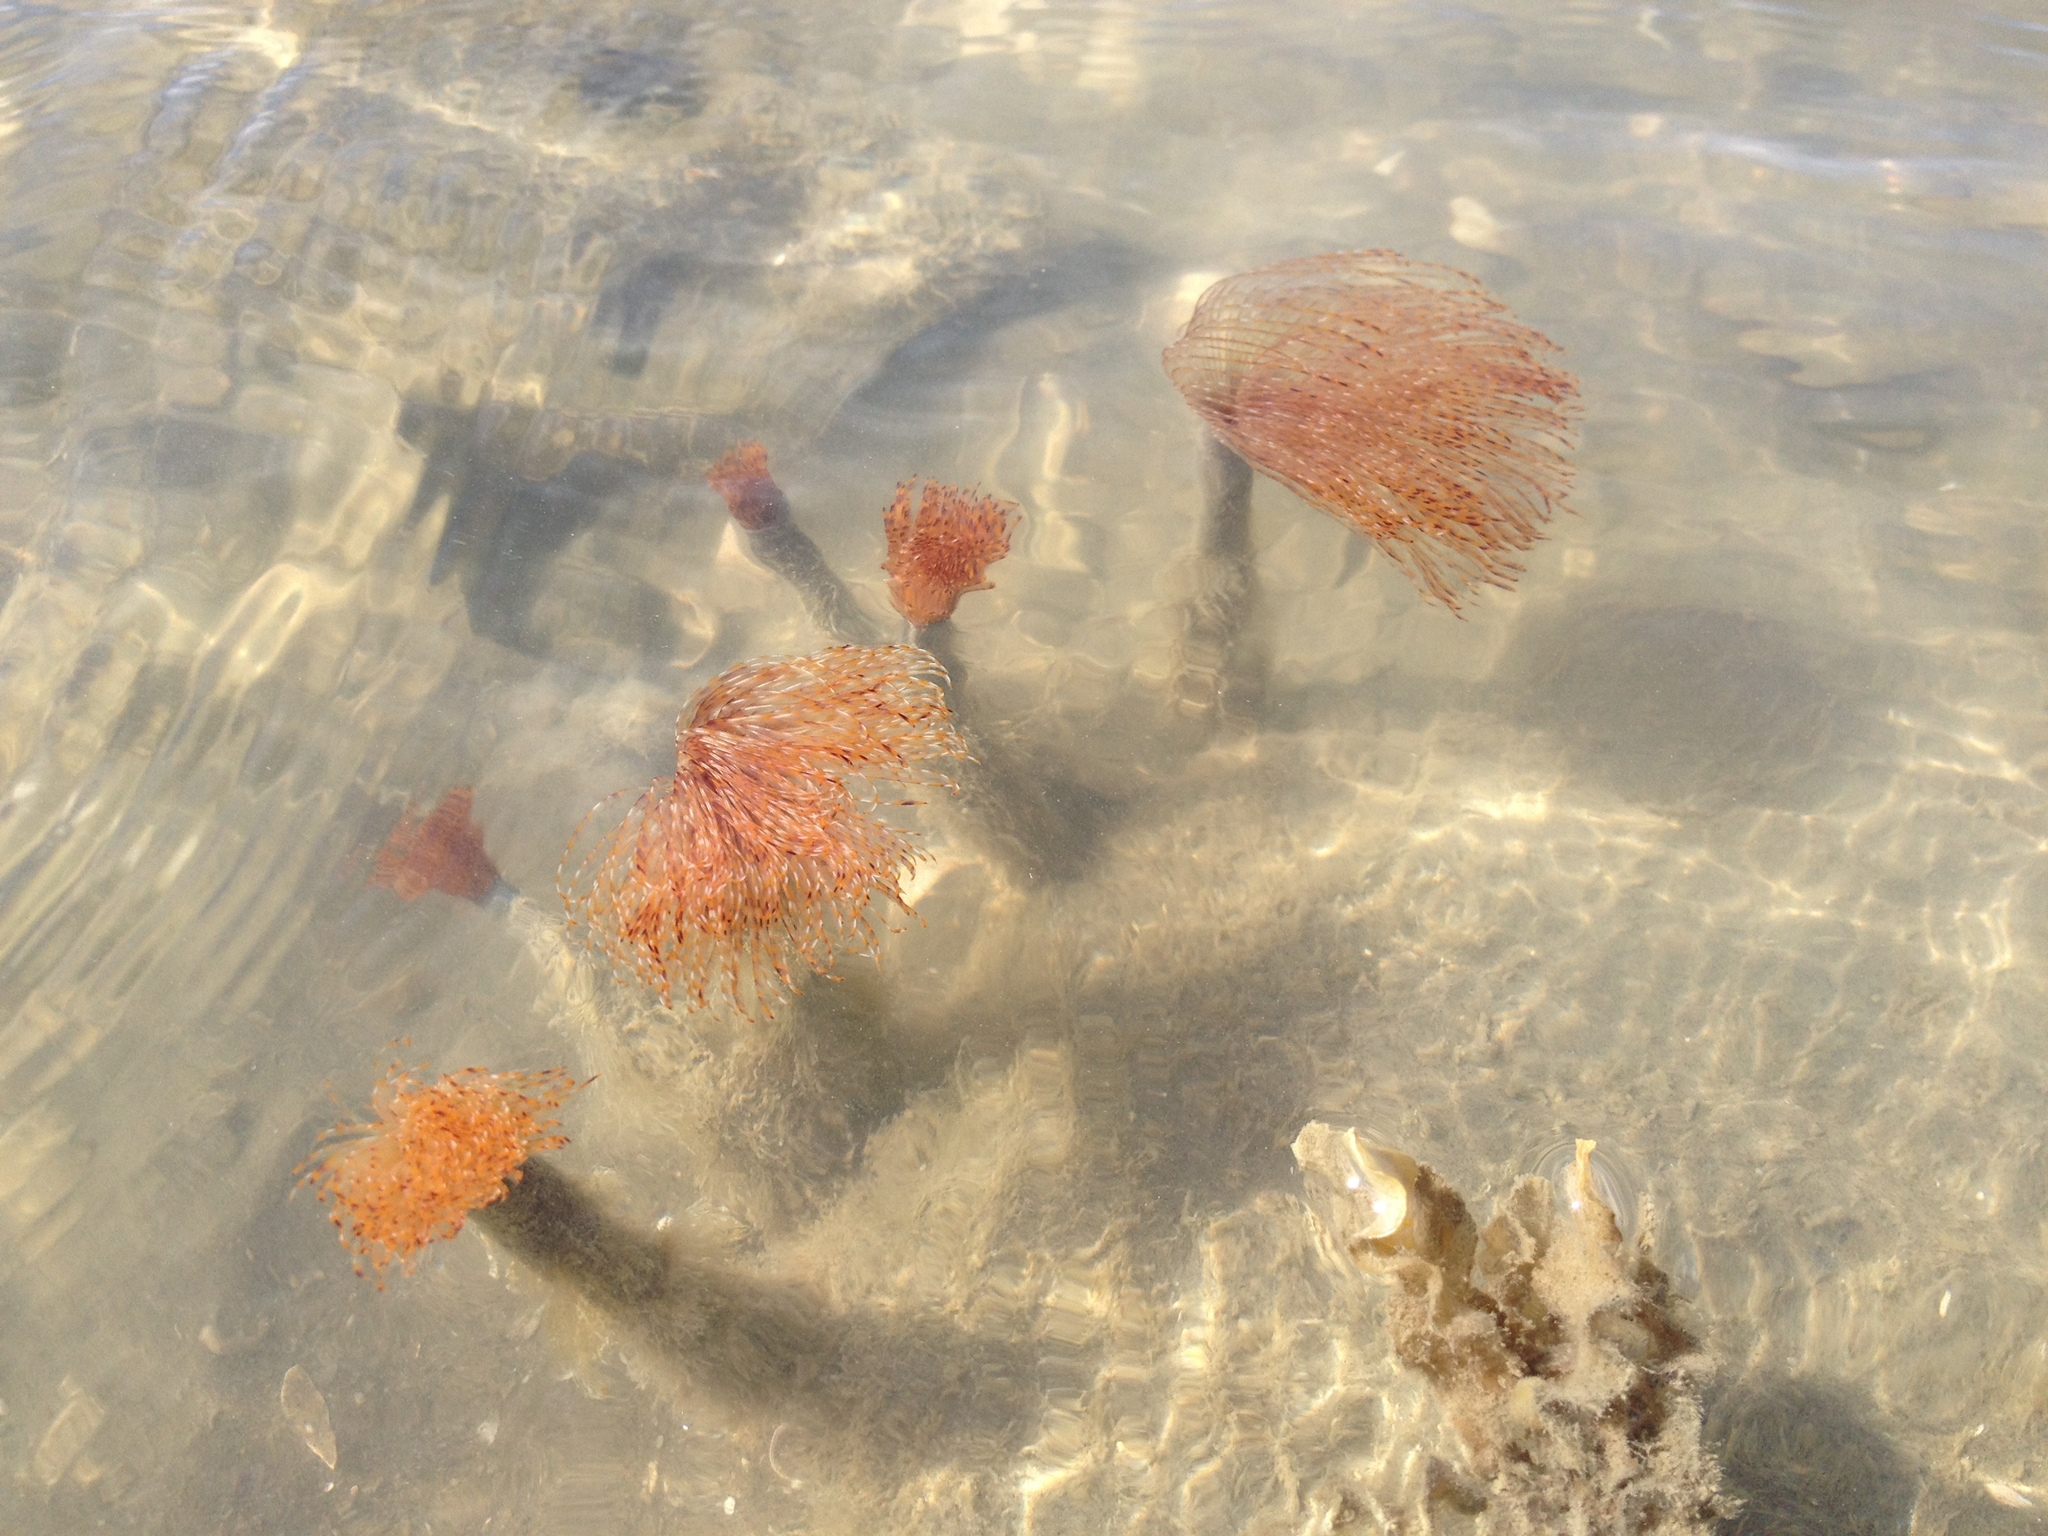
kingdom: Animalia
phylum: Annelida
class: Polychaeta
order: Sabellida
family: Sabellidae
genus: Sabella
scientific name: Sabella spallanzanii
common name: Feather duster worm
